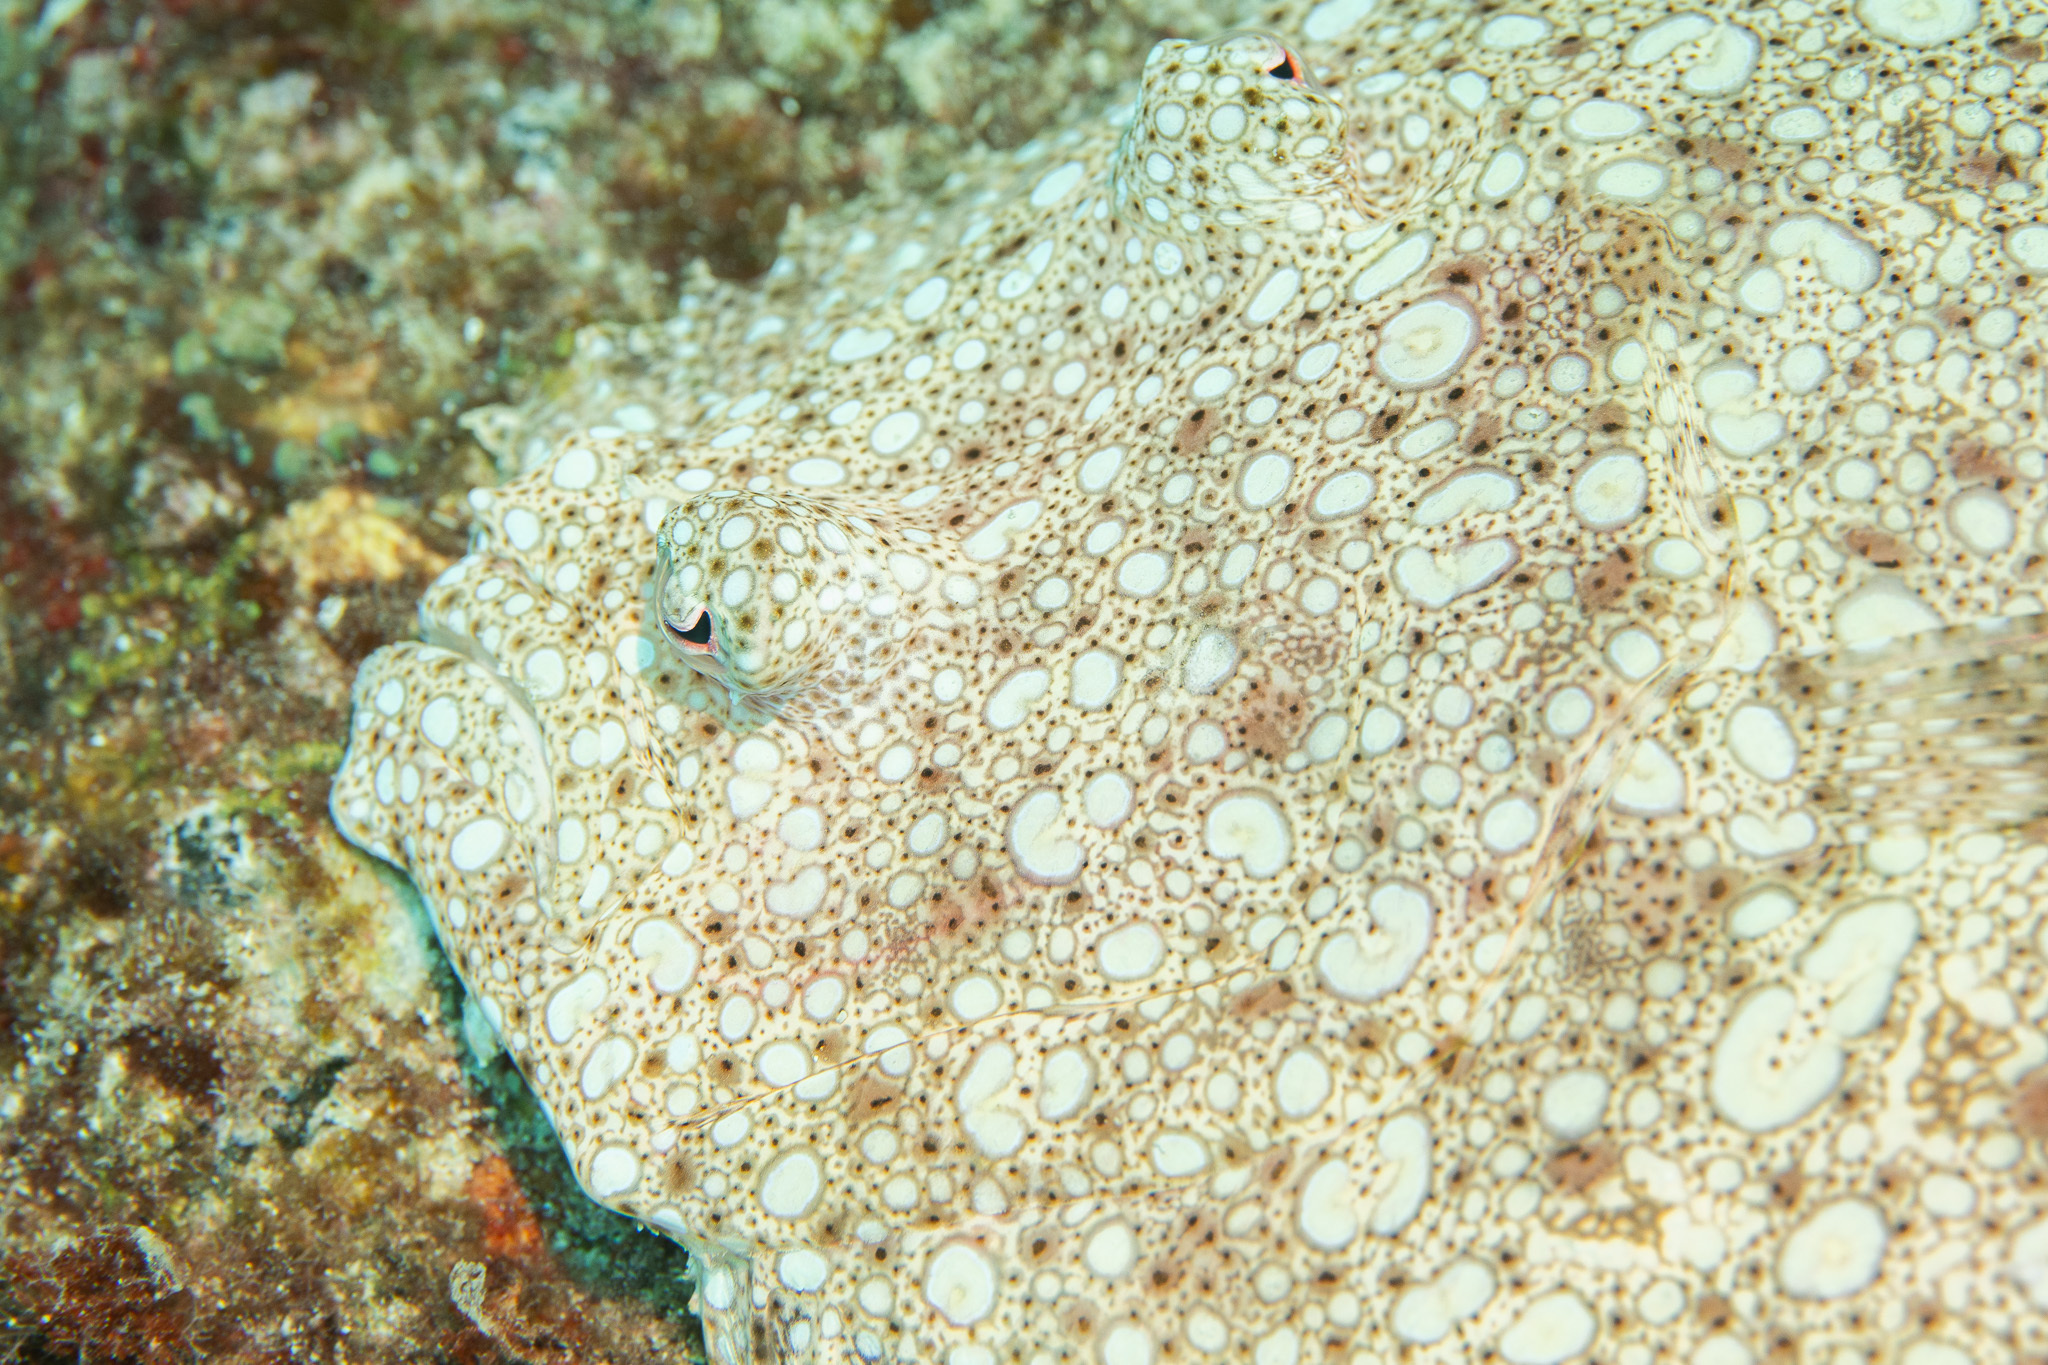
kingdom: Animalia
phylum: Chordata
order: Pleuronectiformes
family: Bothidae
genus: Bothus
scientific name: Bothus mancus
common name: Flowery flounder
